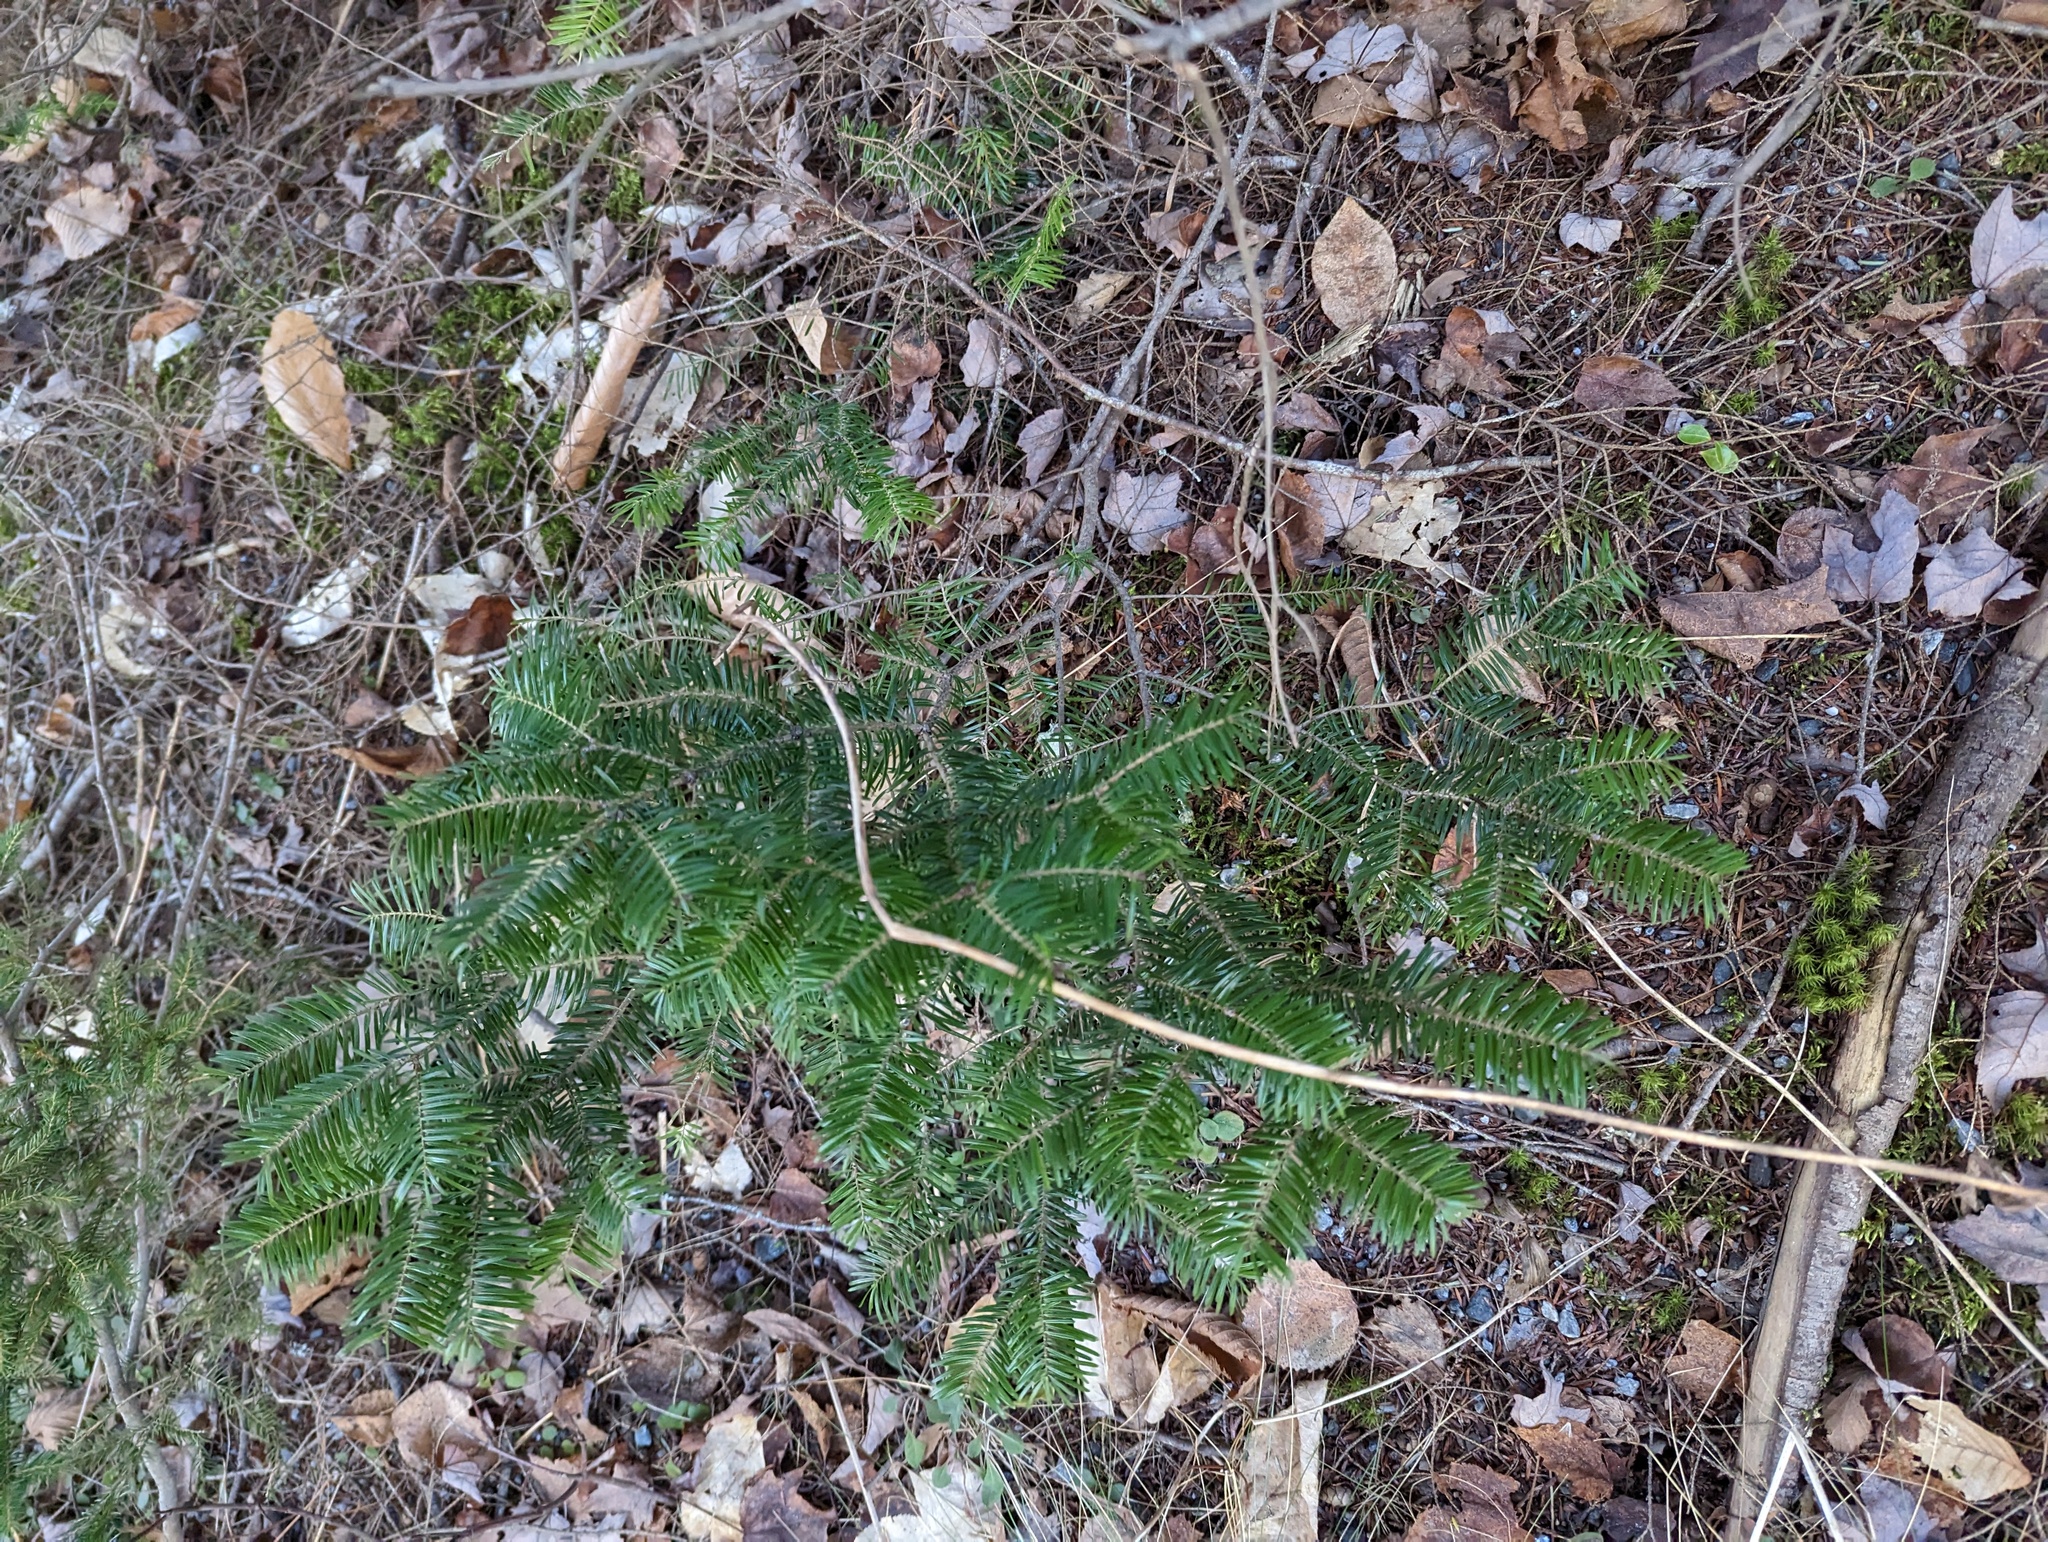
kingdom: Plantae
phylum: Tracheophyta
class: Pinopsida
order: Pinales
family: Pinaceae
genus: Abies
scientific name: Abies balsamea
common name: Balsam fir
